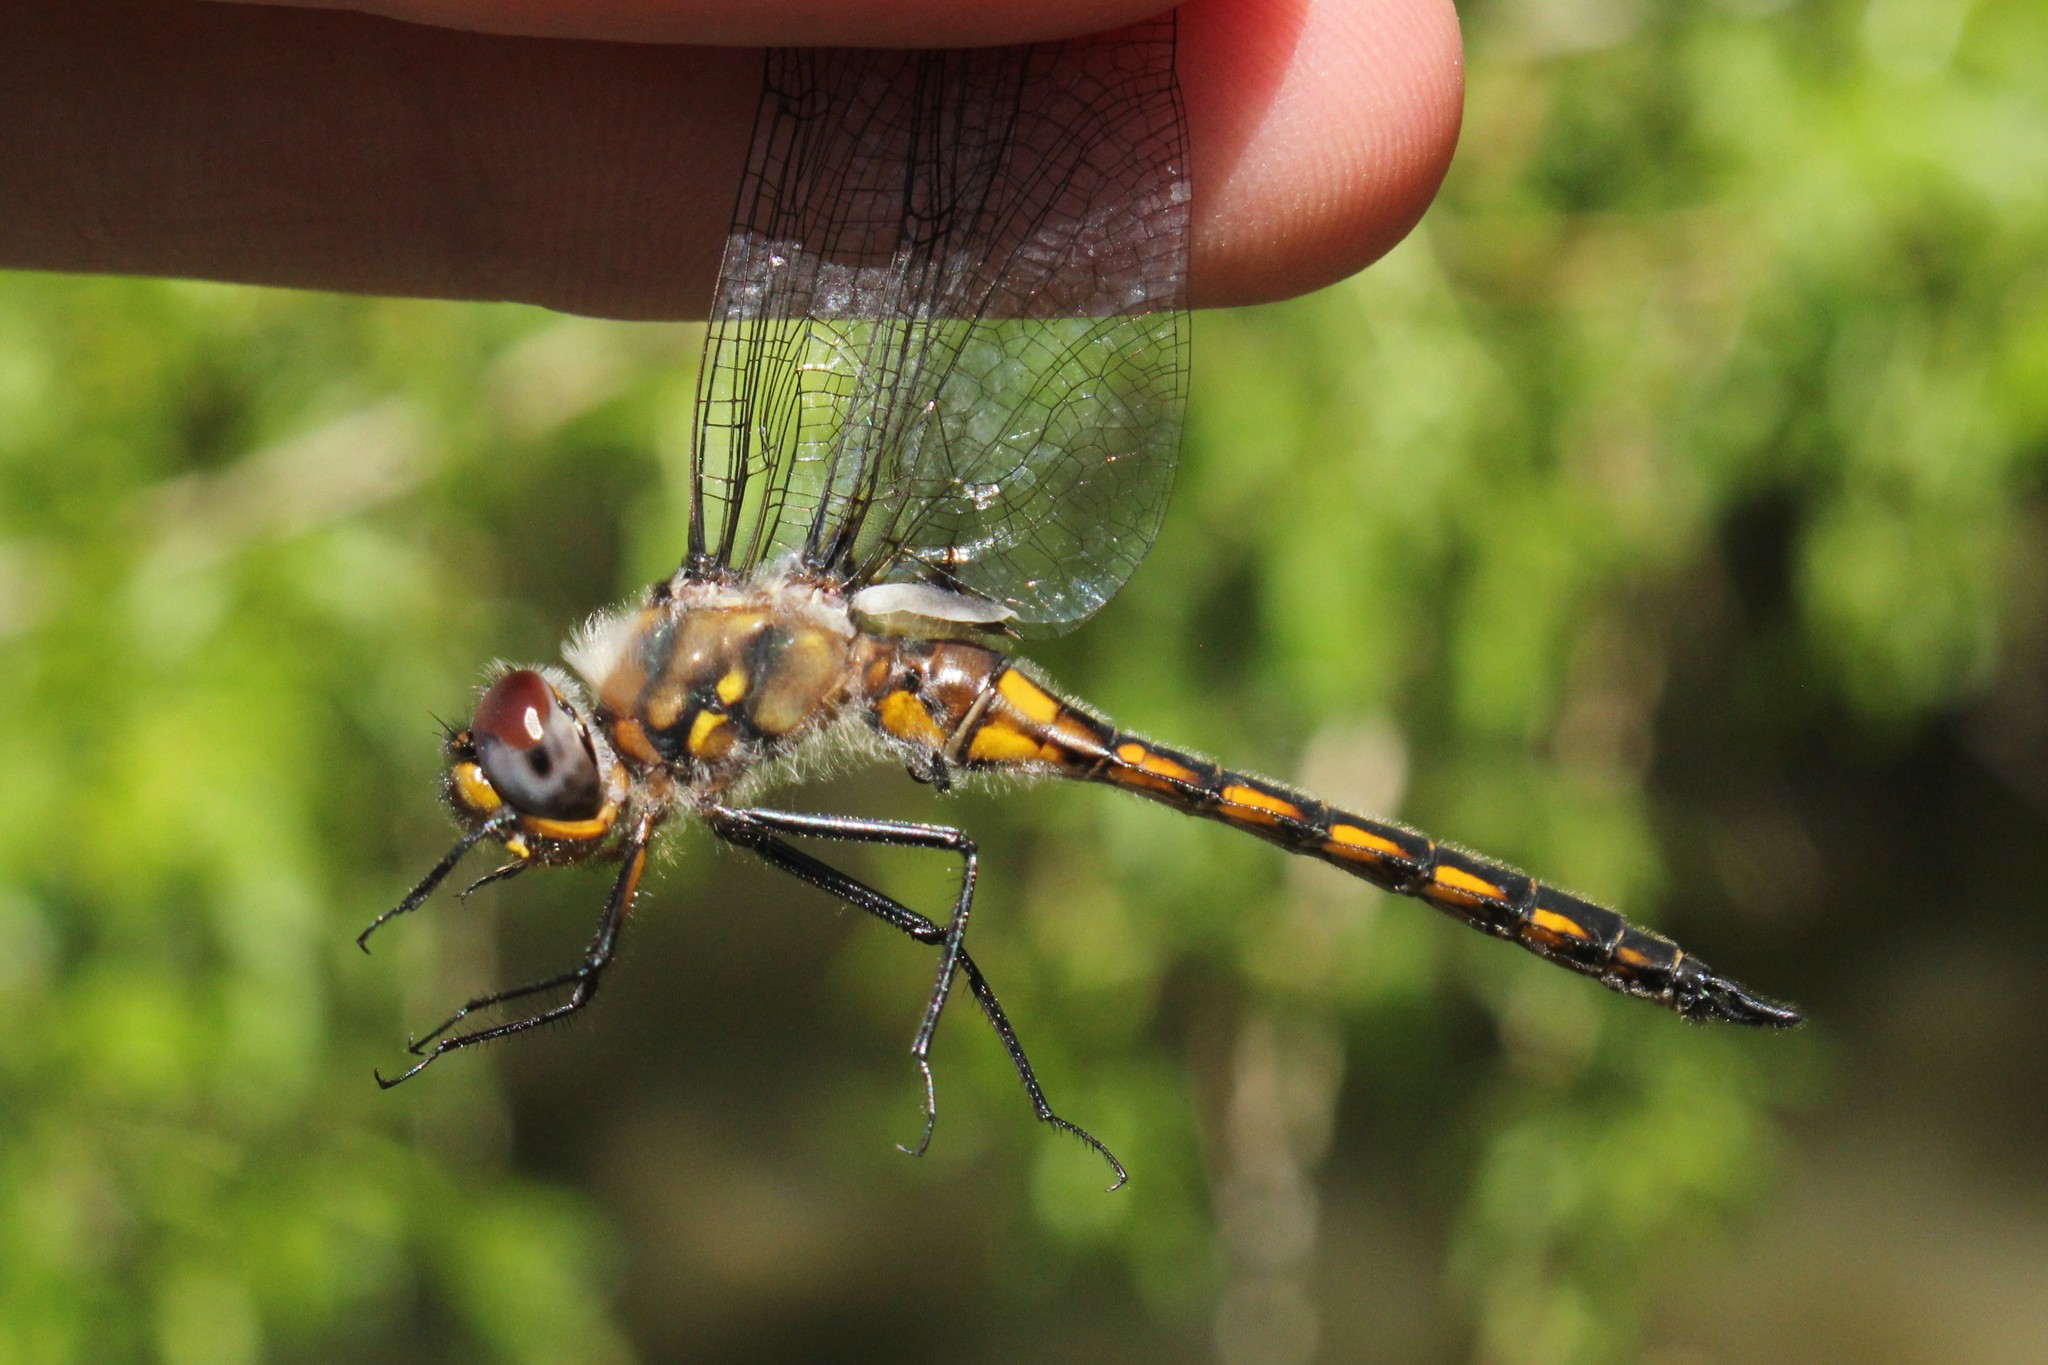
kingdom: Animalia
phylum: Arthropoda
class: Insecta
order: Odonata
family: Corduliidae
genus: Epitheca
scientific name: Epitheca cynosura
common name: Common baskettail
